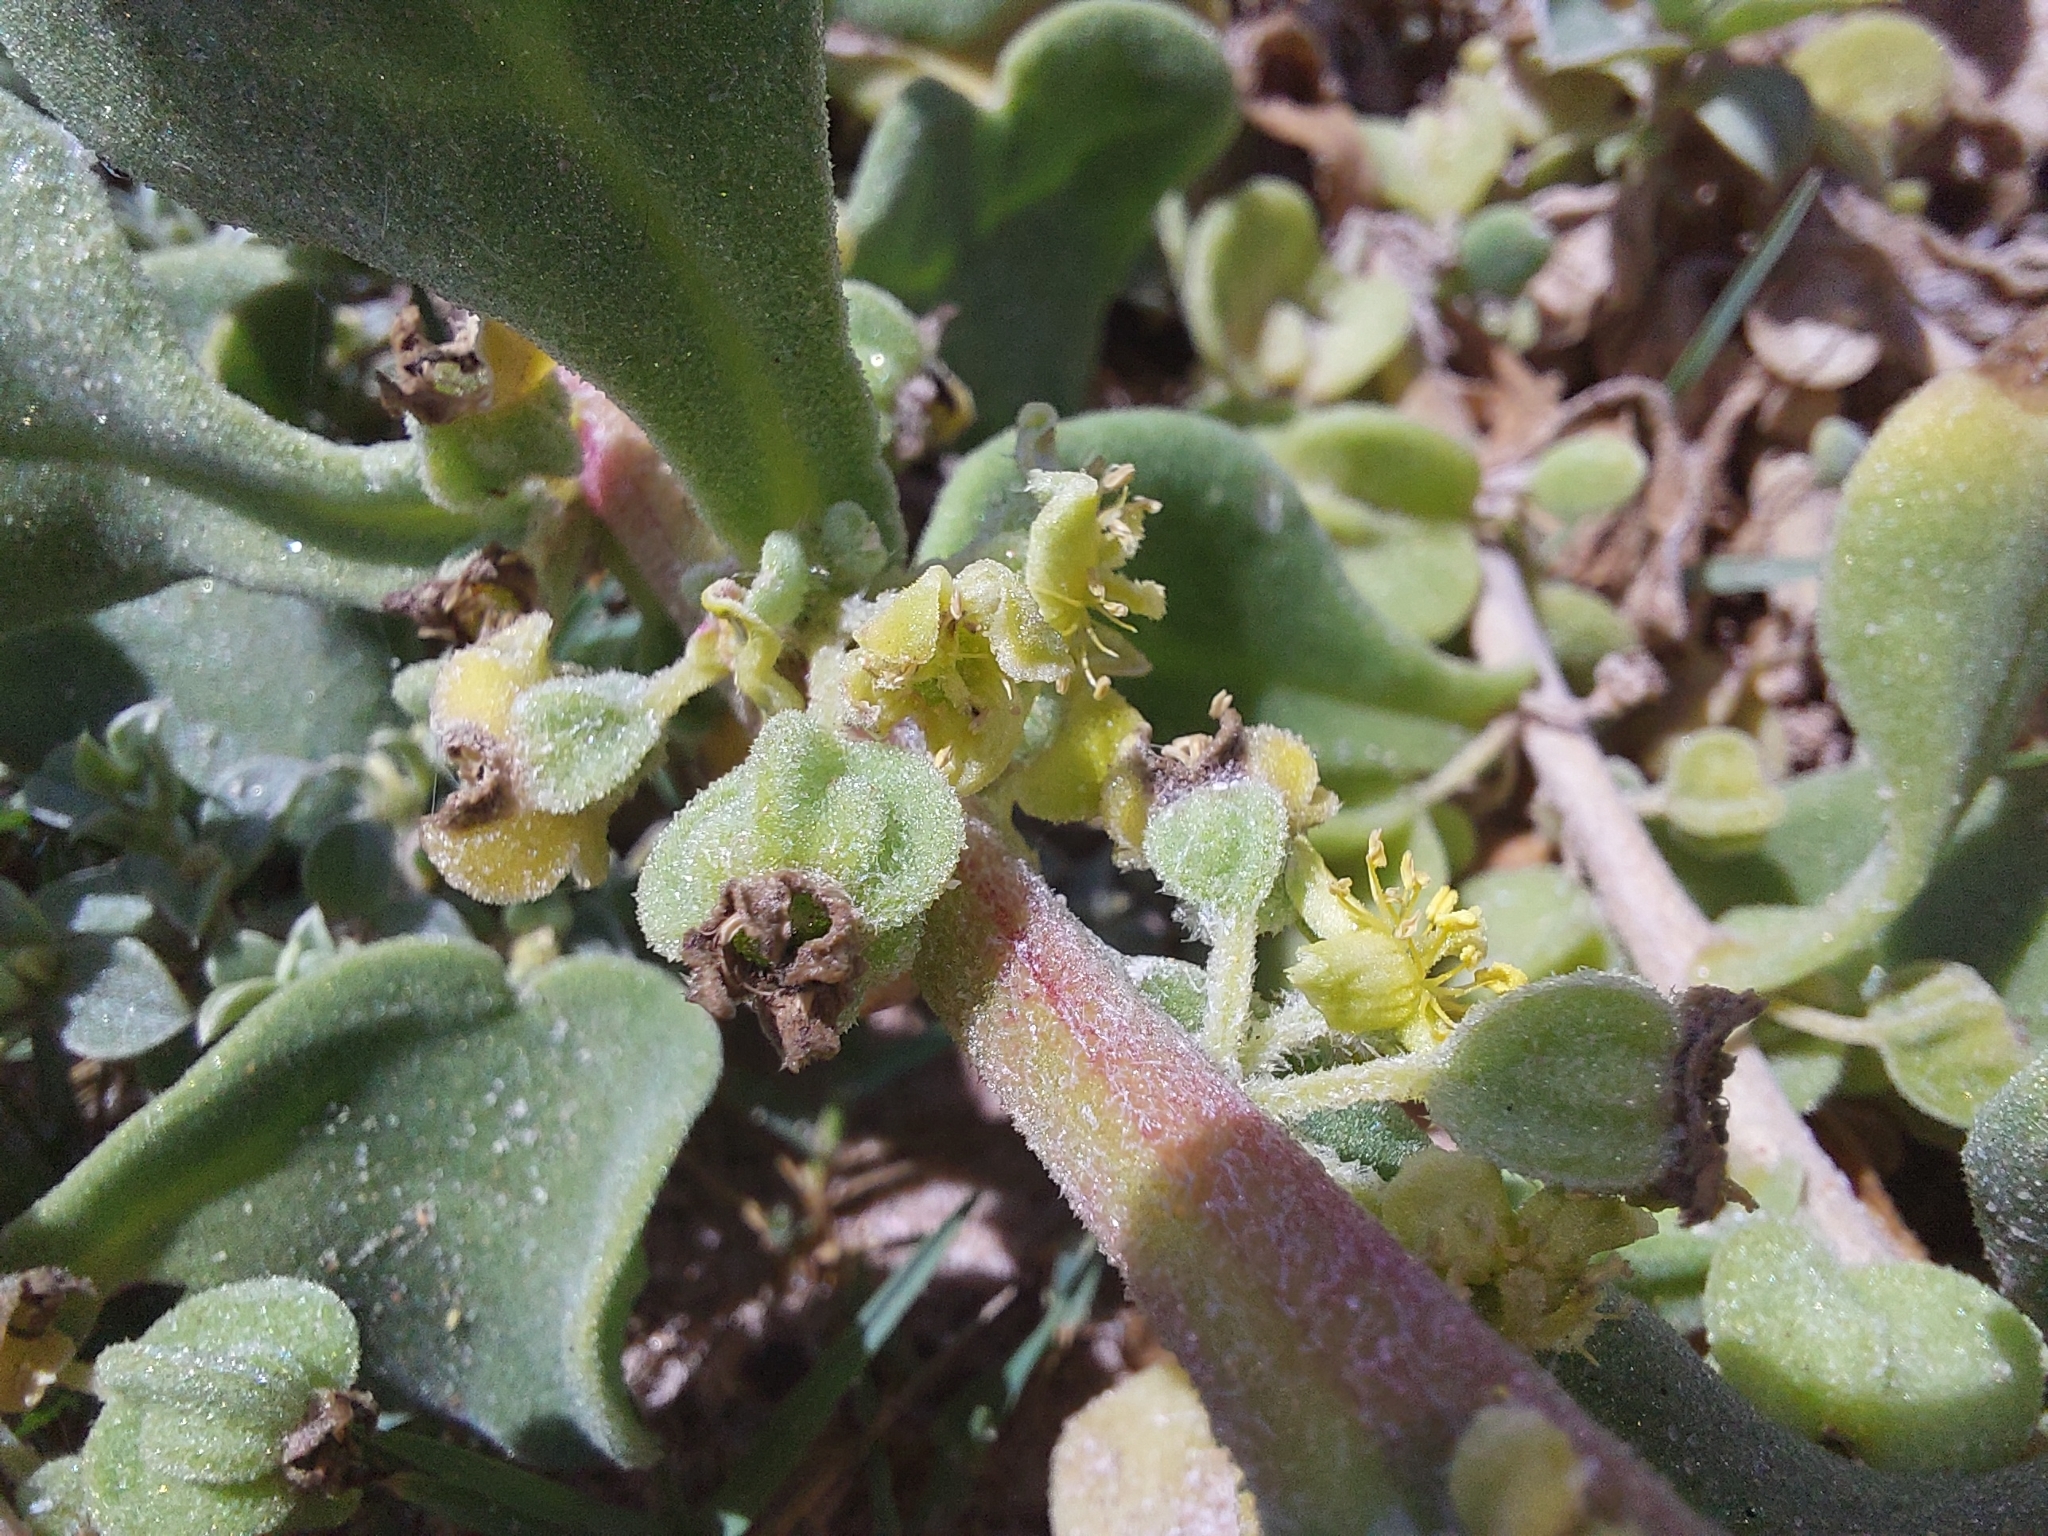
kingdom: Plantae
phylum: Tracheophyta
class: Magnoliopsida
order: Caryophyllales
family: Aizoaceae
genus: Tetragonia
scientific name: Tetragonia decumbens
